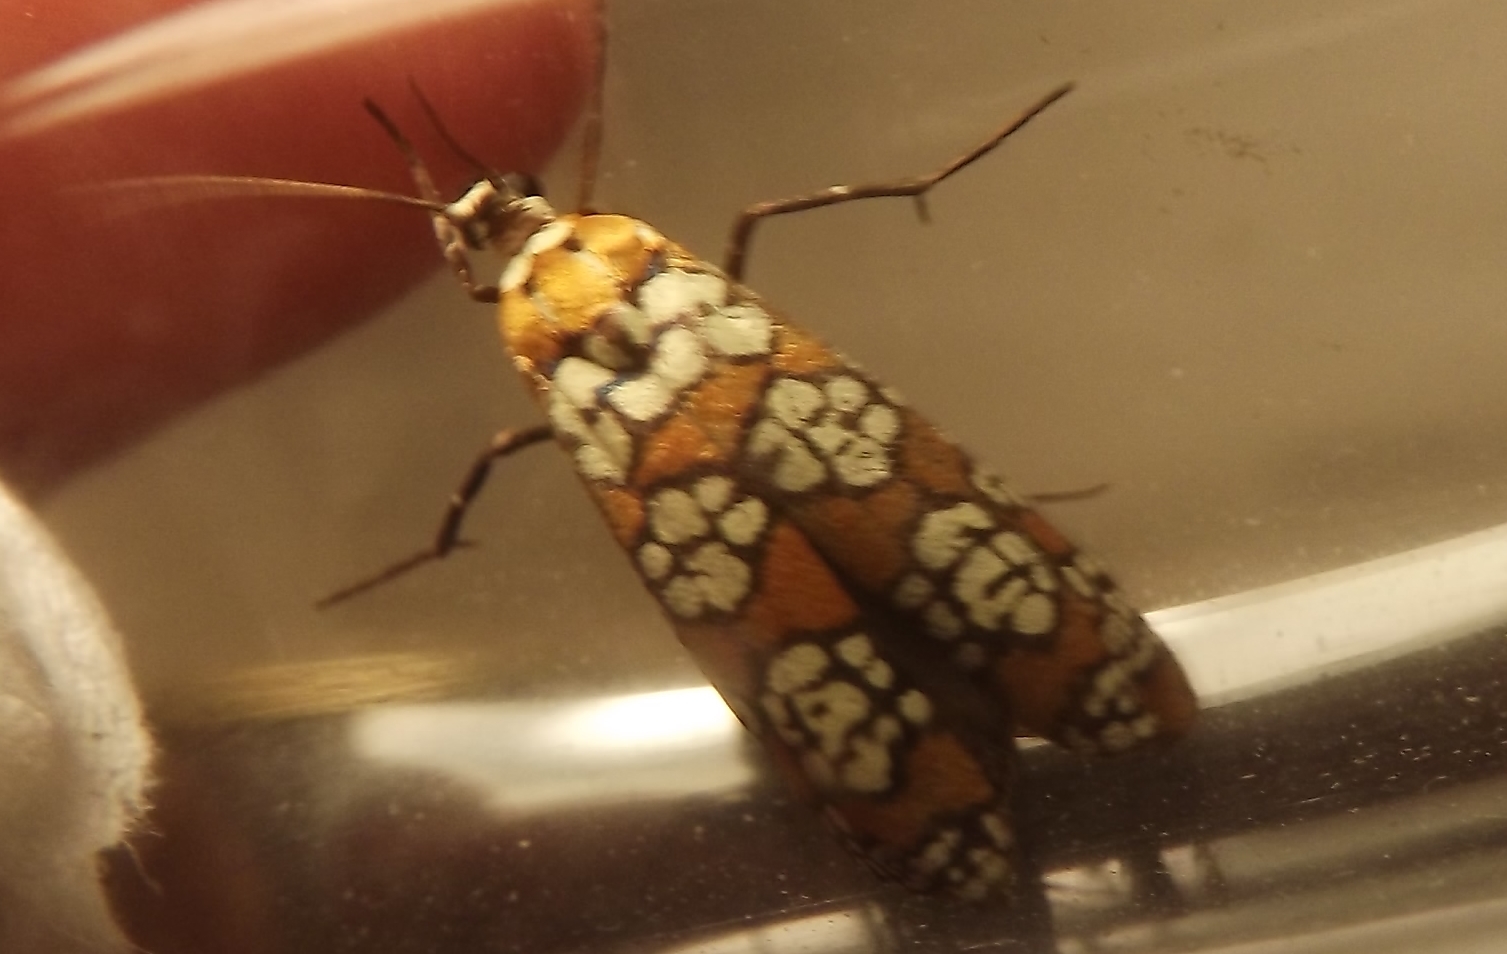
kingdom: Animalia
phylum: Arthropoda
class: Insecta
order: Lepidoptera
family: Attevidae
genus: Atteva
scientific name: Atteva punctella
